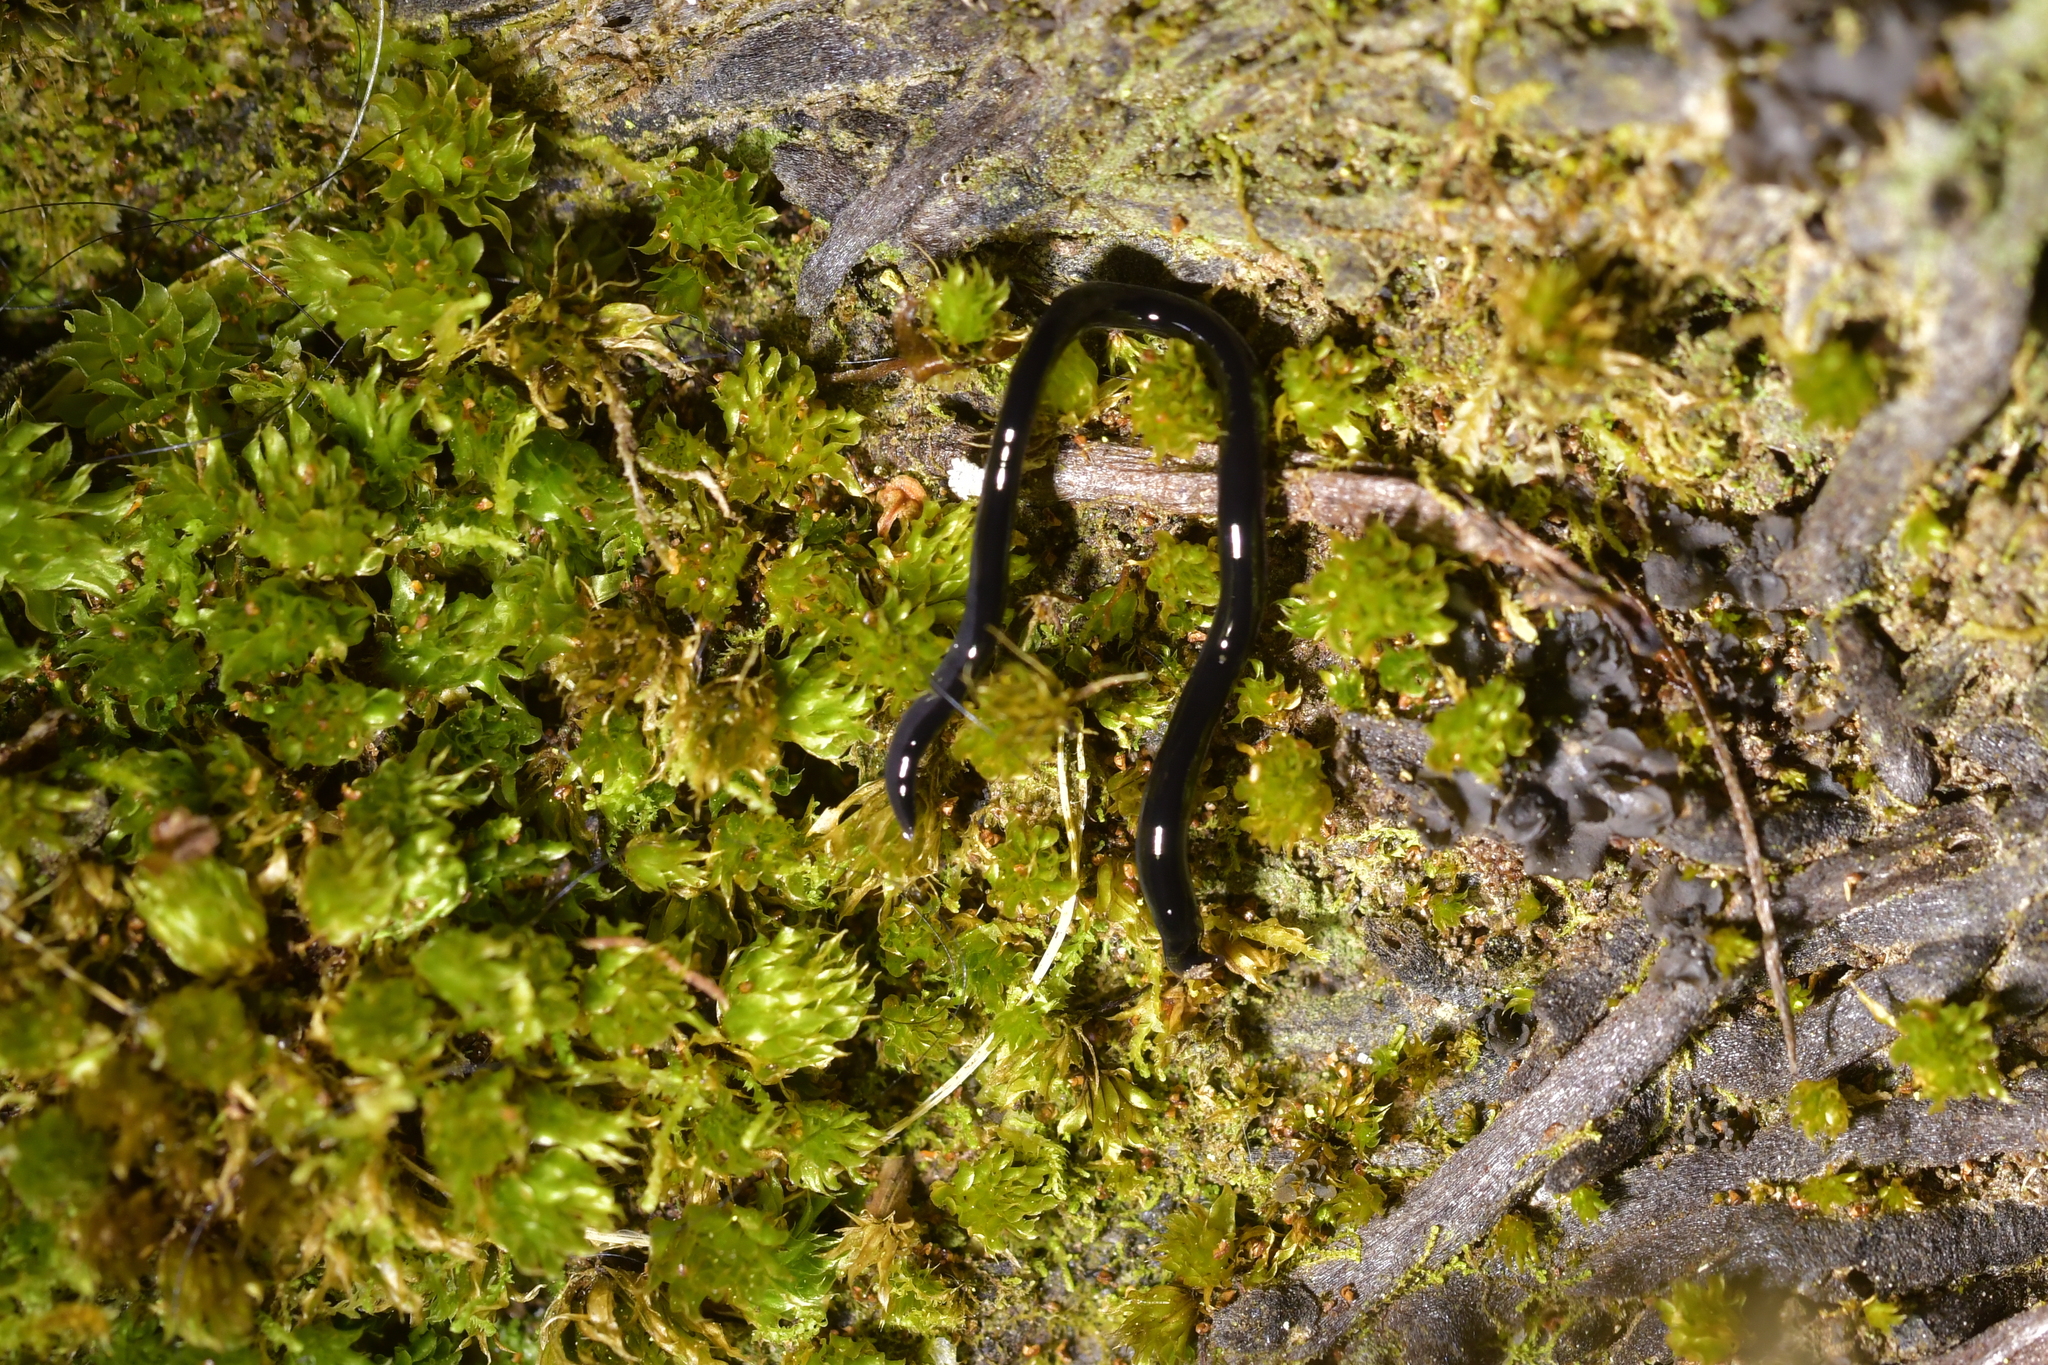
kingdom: Animalia
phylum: Platyhelminthes
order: Tricladida
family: Geoplanidae
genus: Parakontikia
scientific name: Parakontikia ventrolineata
